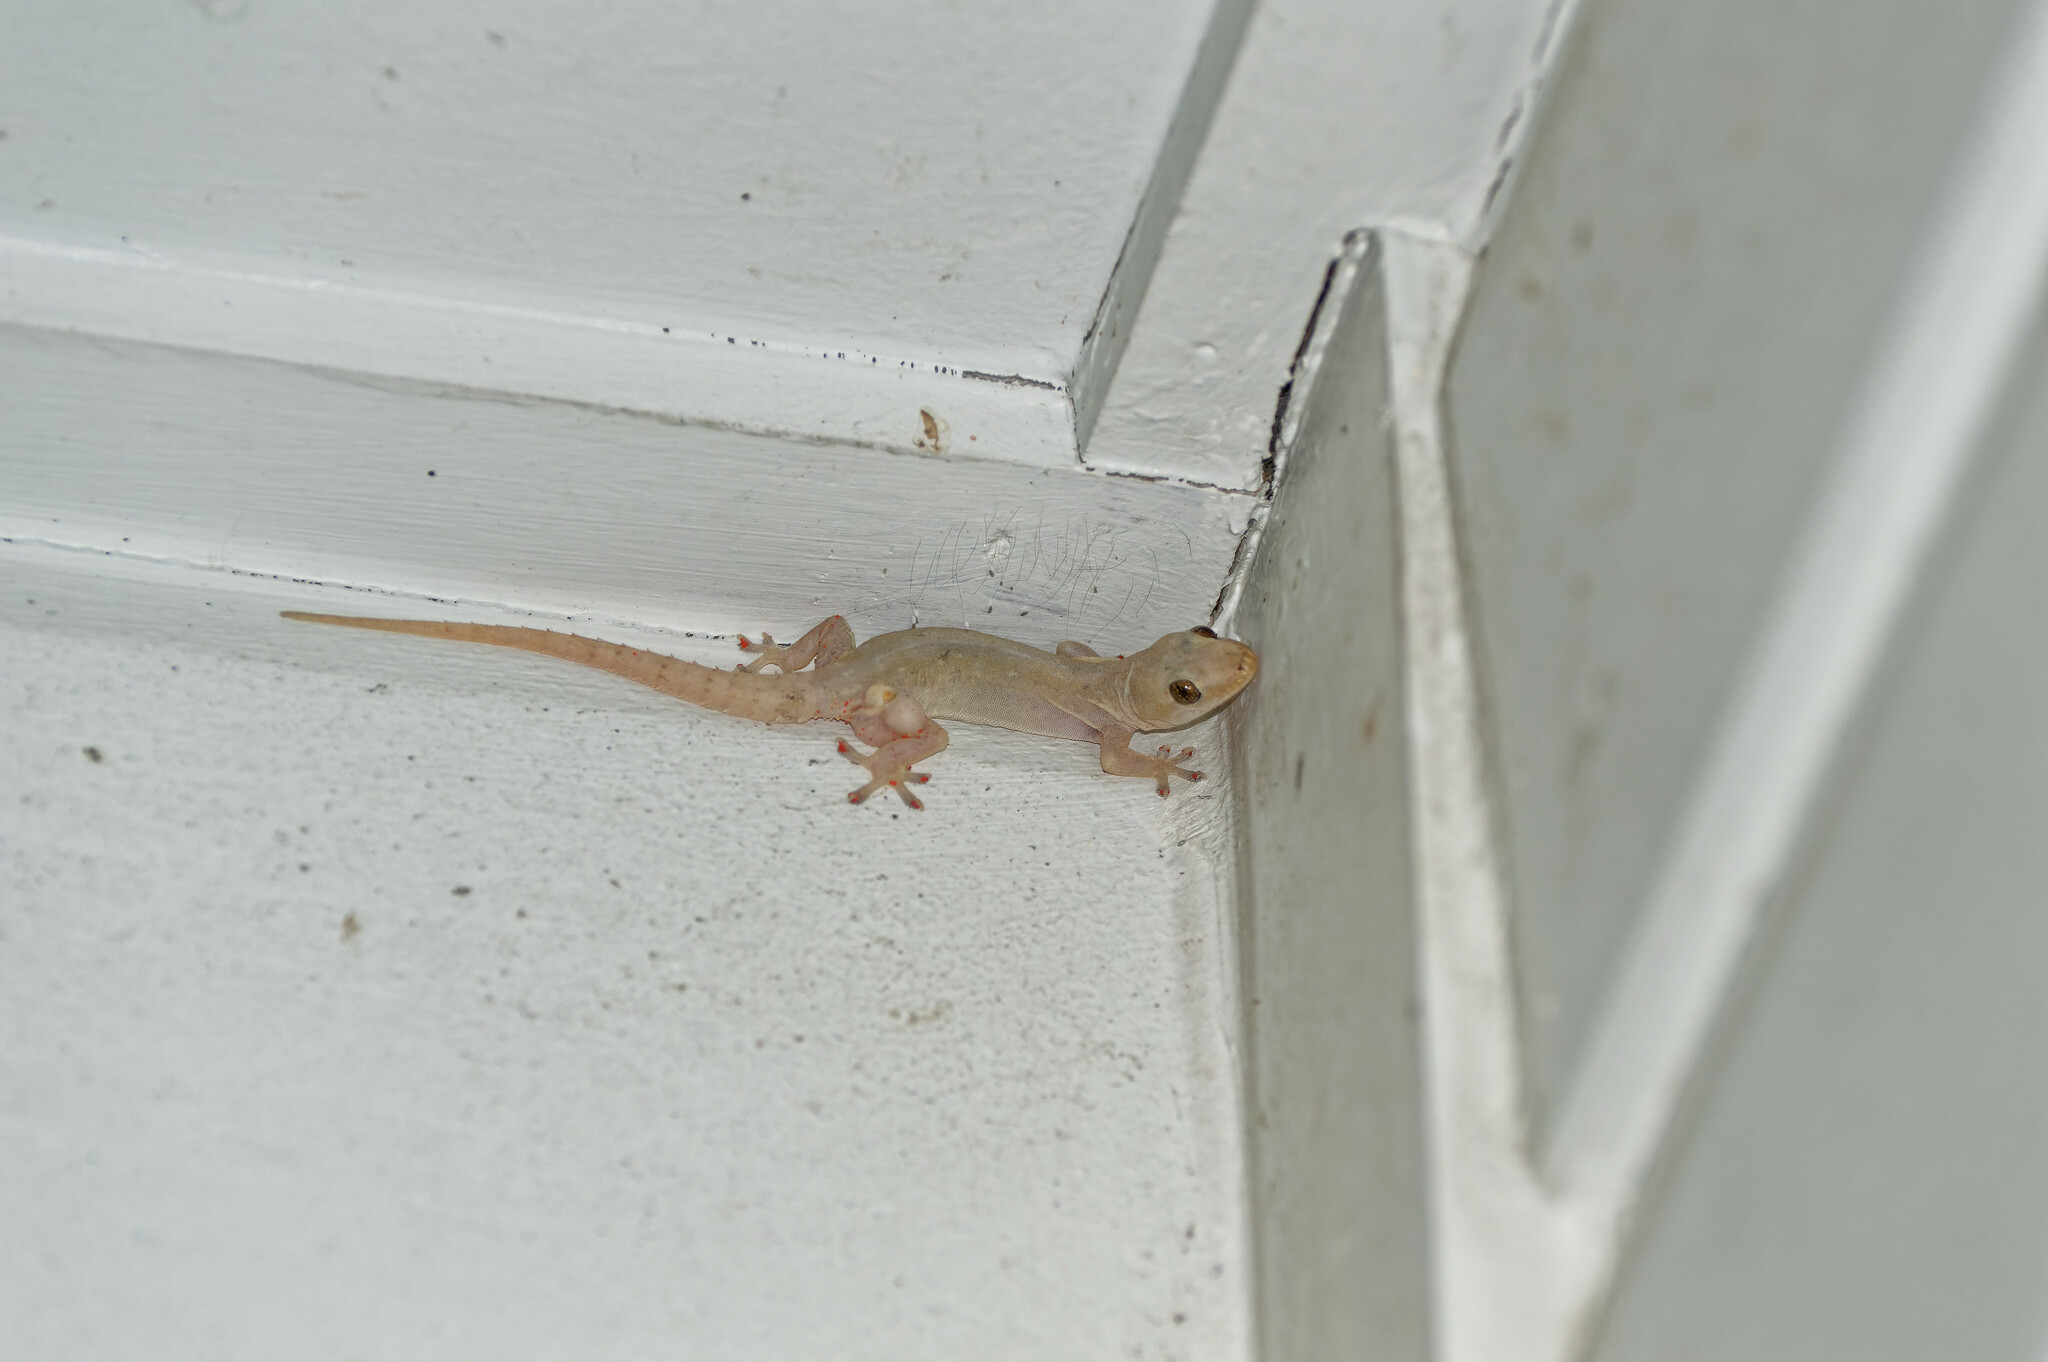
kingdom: Animalia
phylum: Chordata
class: Squamata
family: Gekkonidae
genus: Hemidactylus
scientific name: Hemidactylus frenatus
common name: Common house gecko
